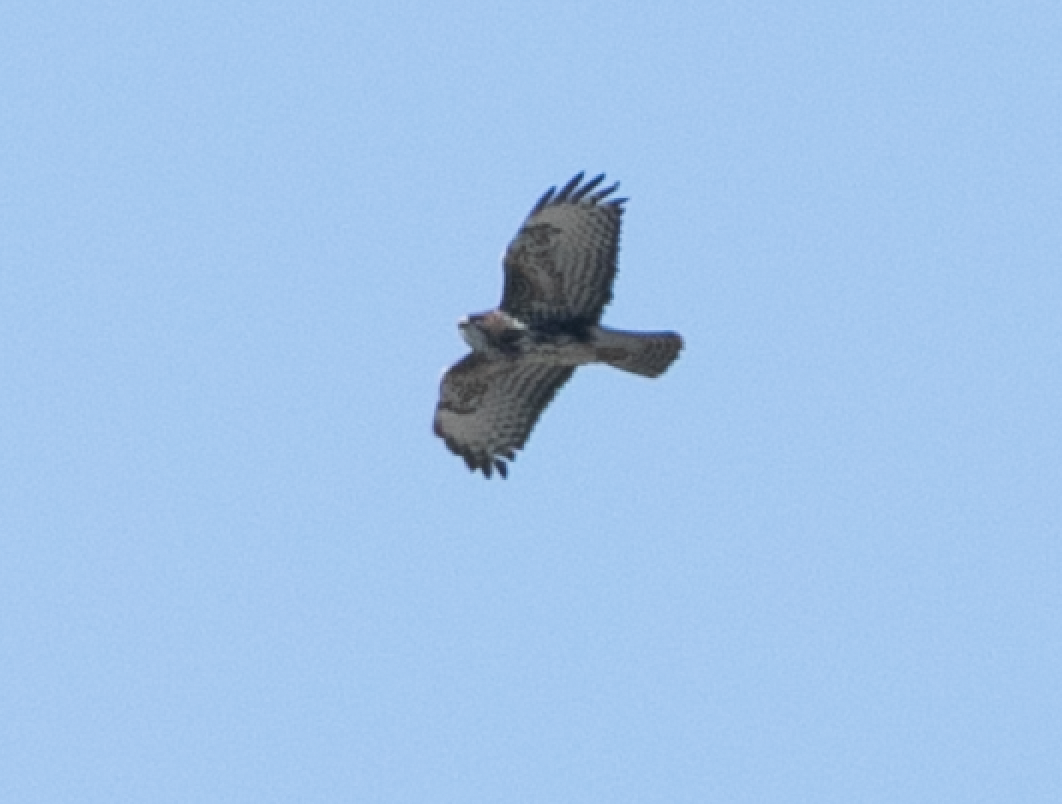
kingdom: Animalia
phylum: Chordata
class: Aves
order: Accipitriformes
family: Accipitridae
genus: Buteo
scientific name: Buteo buteo
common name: Common buzzard
